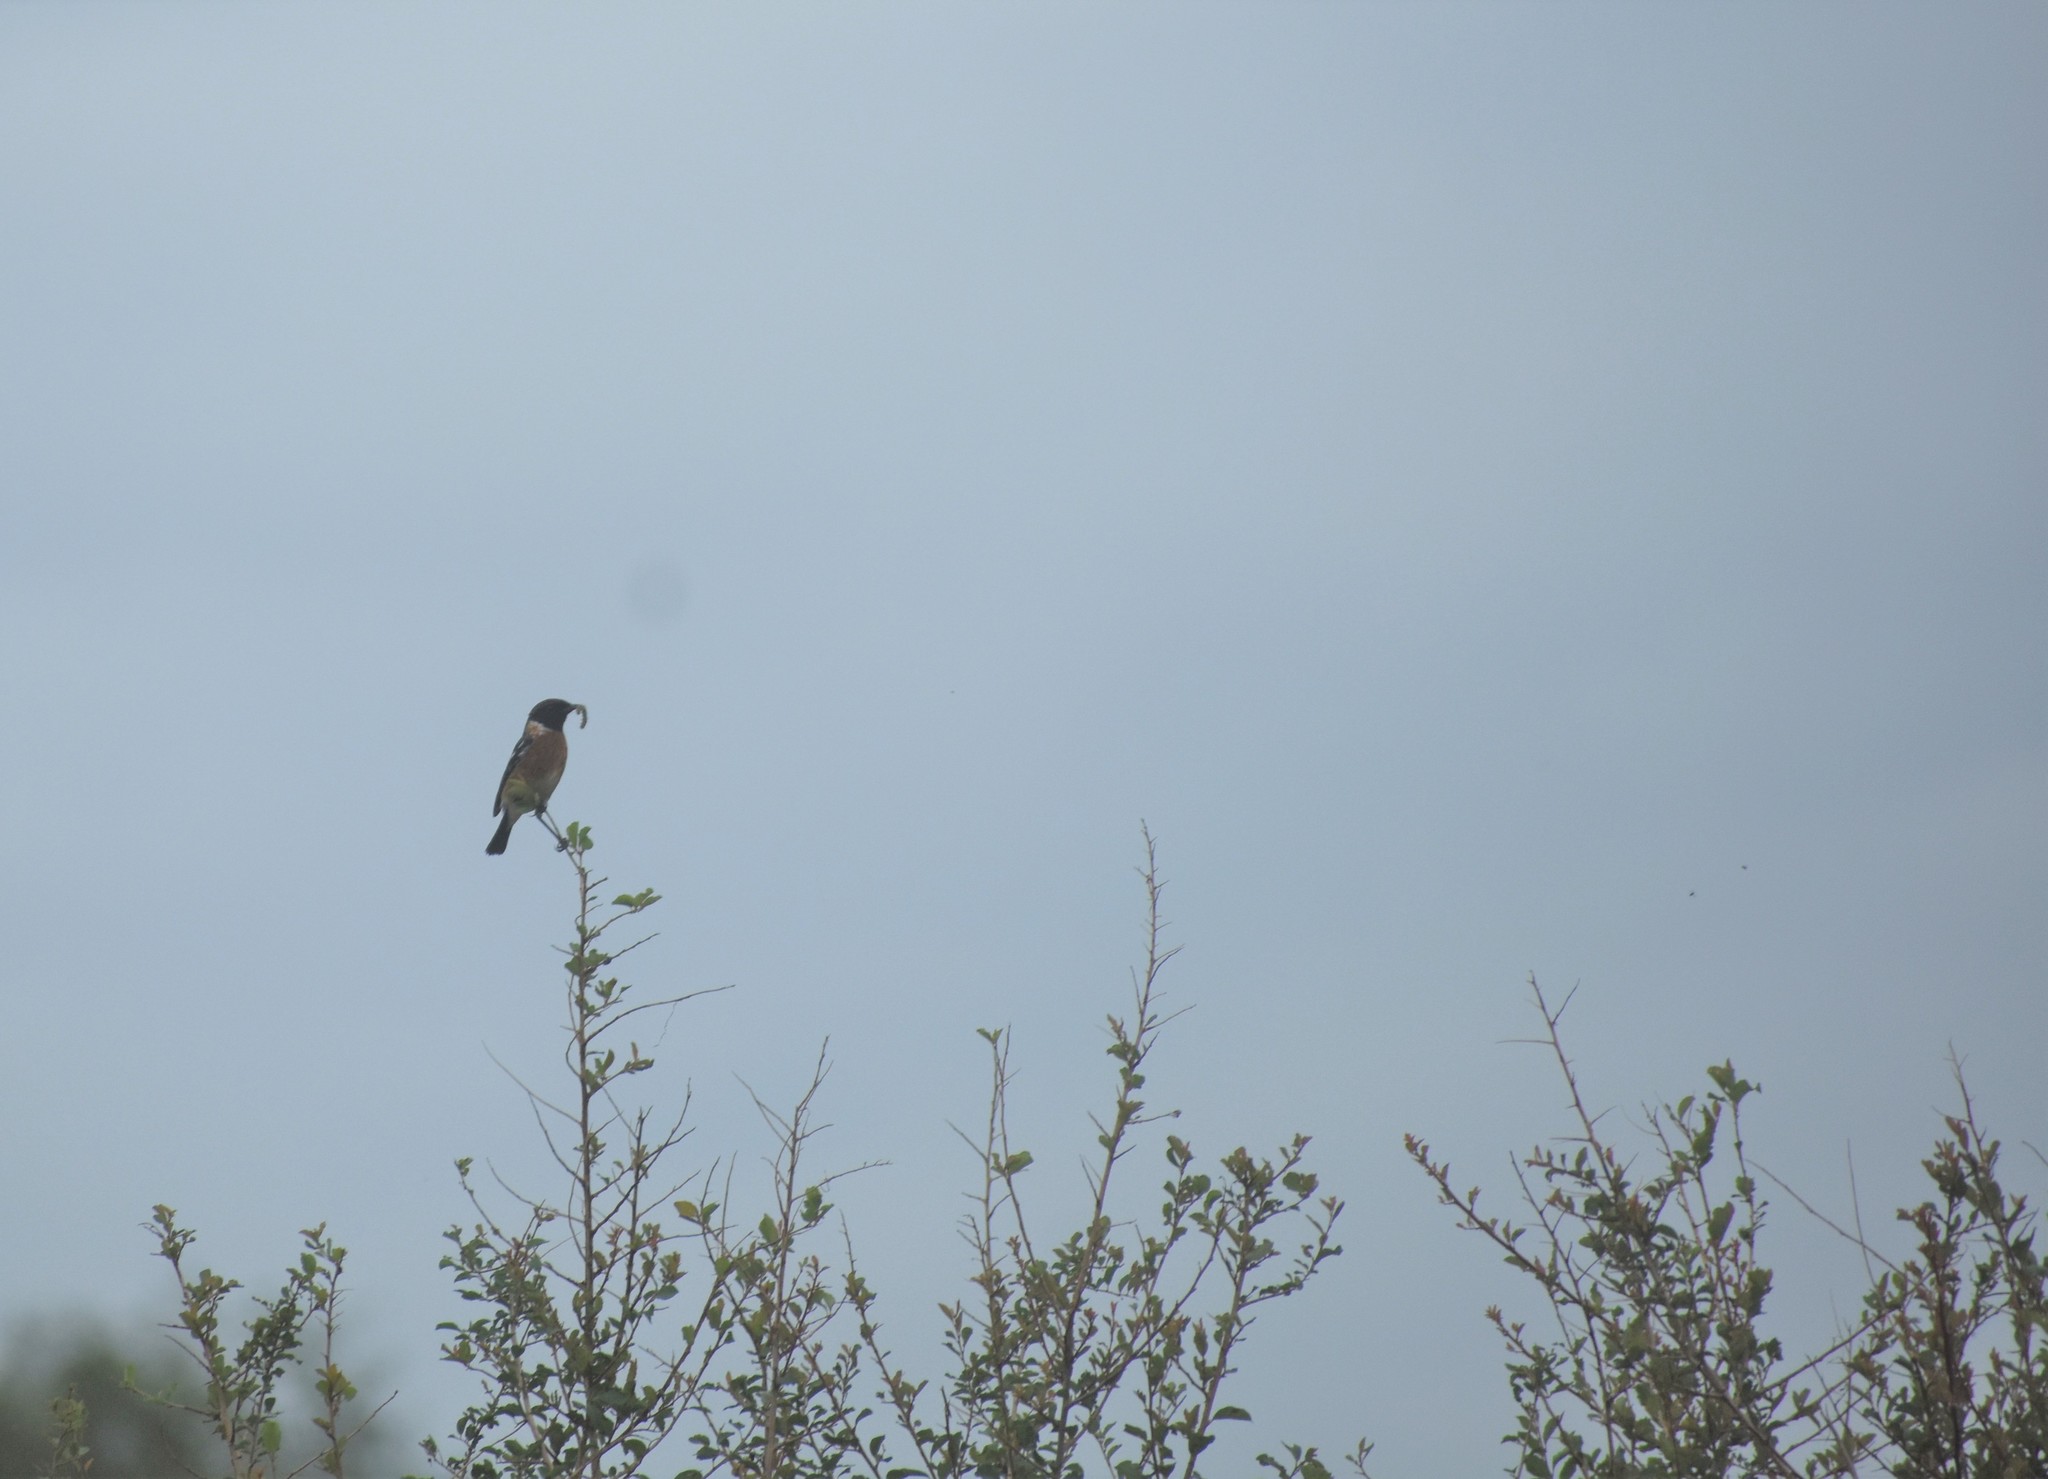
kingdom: Animalia
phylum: Chordata
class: Aves
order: Passeriformes
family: Muscicapidae
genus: Saxicola
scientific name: Saxicola torquatus
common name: African stonechat
